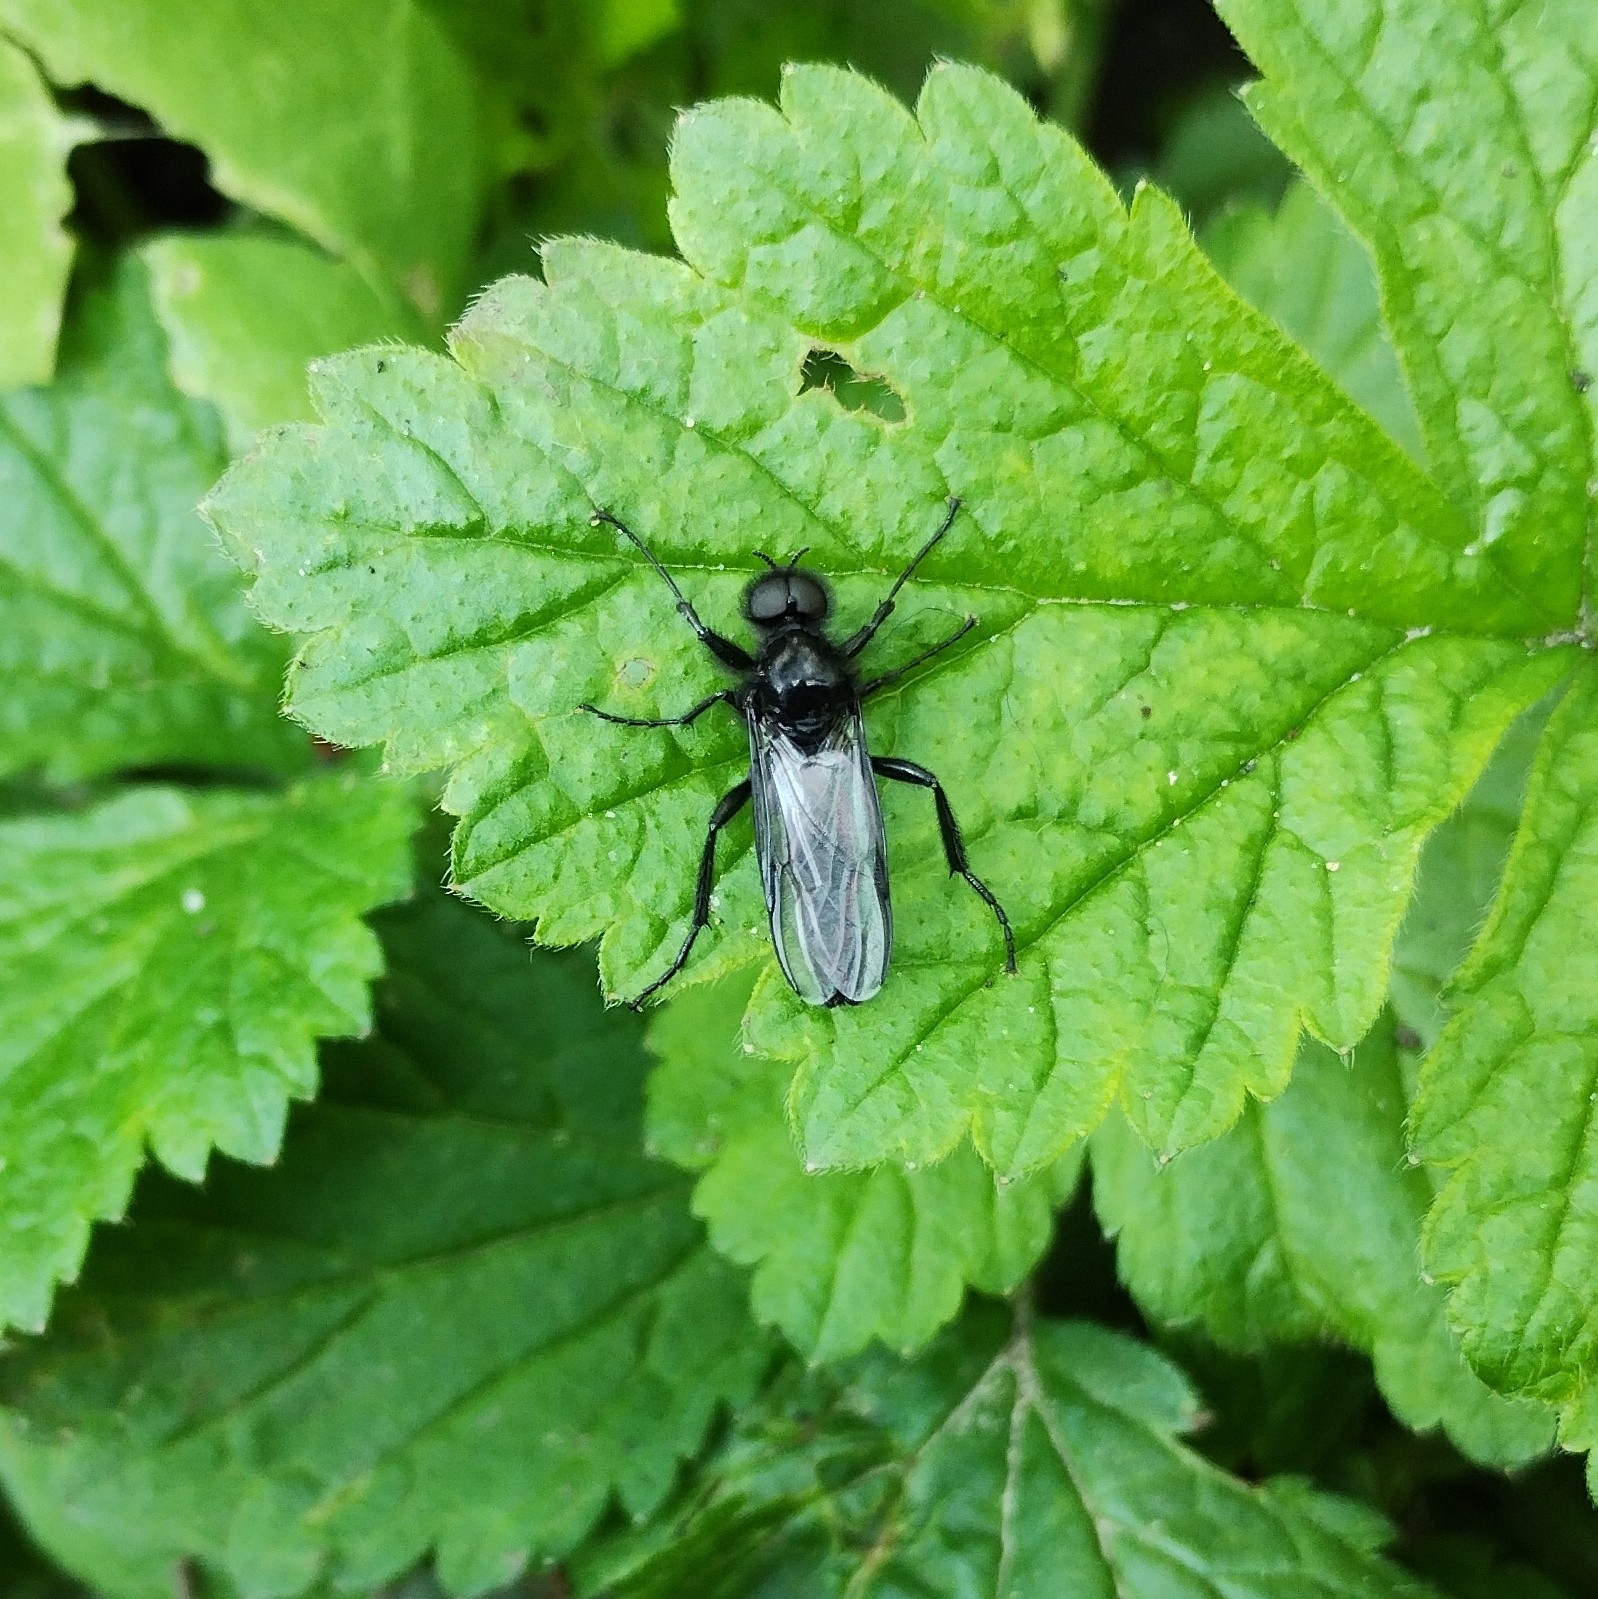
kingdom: Animalia
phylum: Arthropoda
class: Insecta
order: Diptera
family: Bibionidae
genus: Bibio
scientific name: Bibio marci
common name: St marks fly
